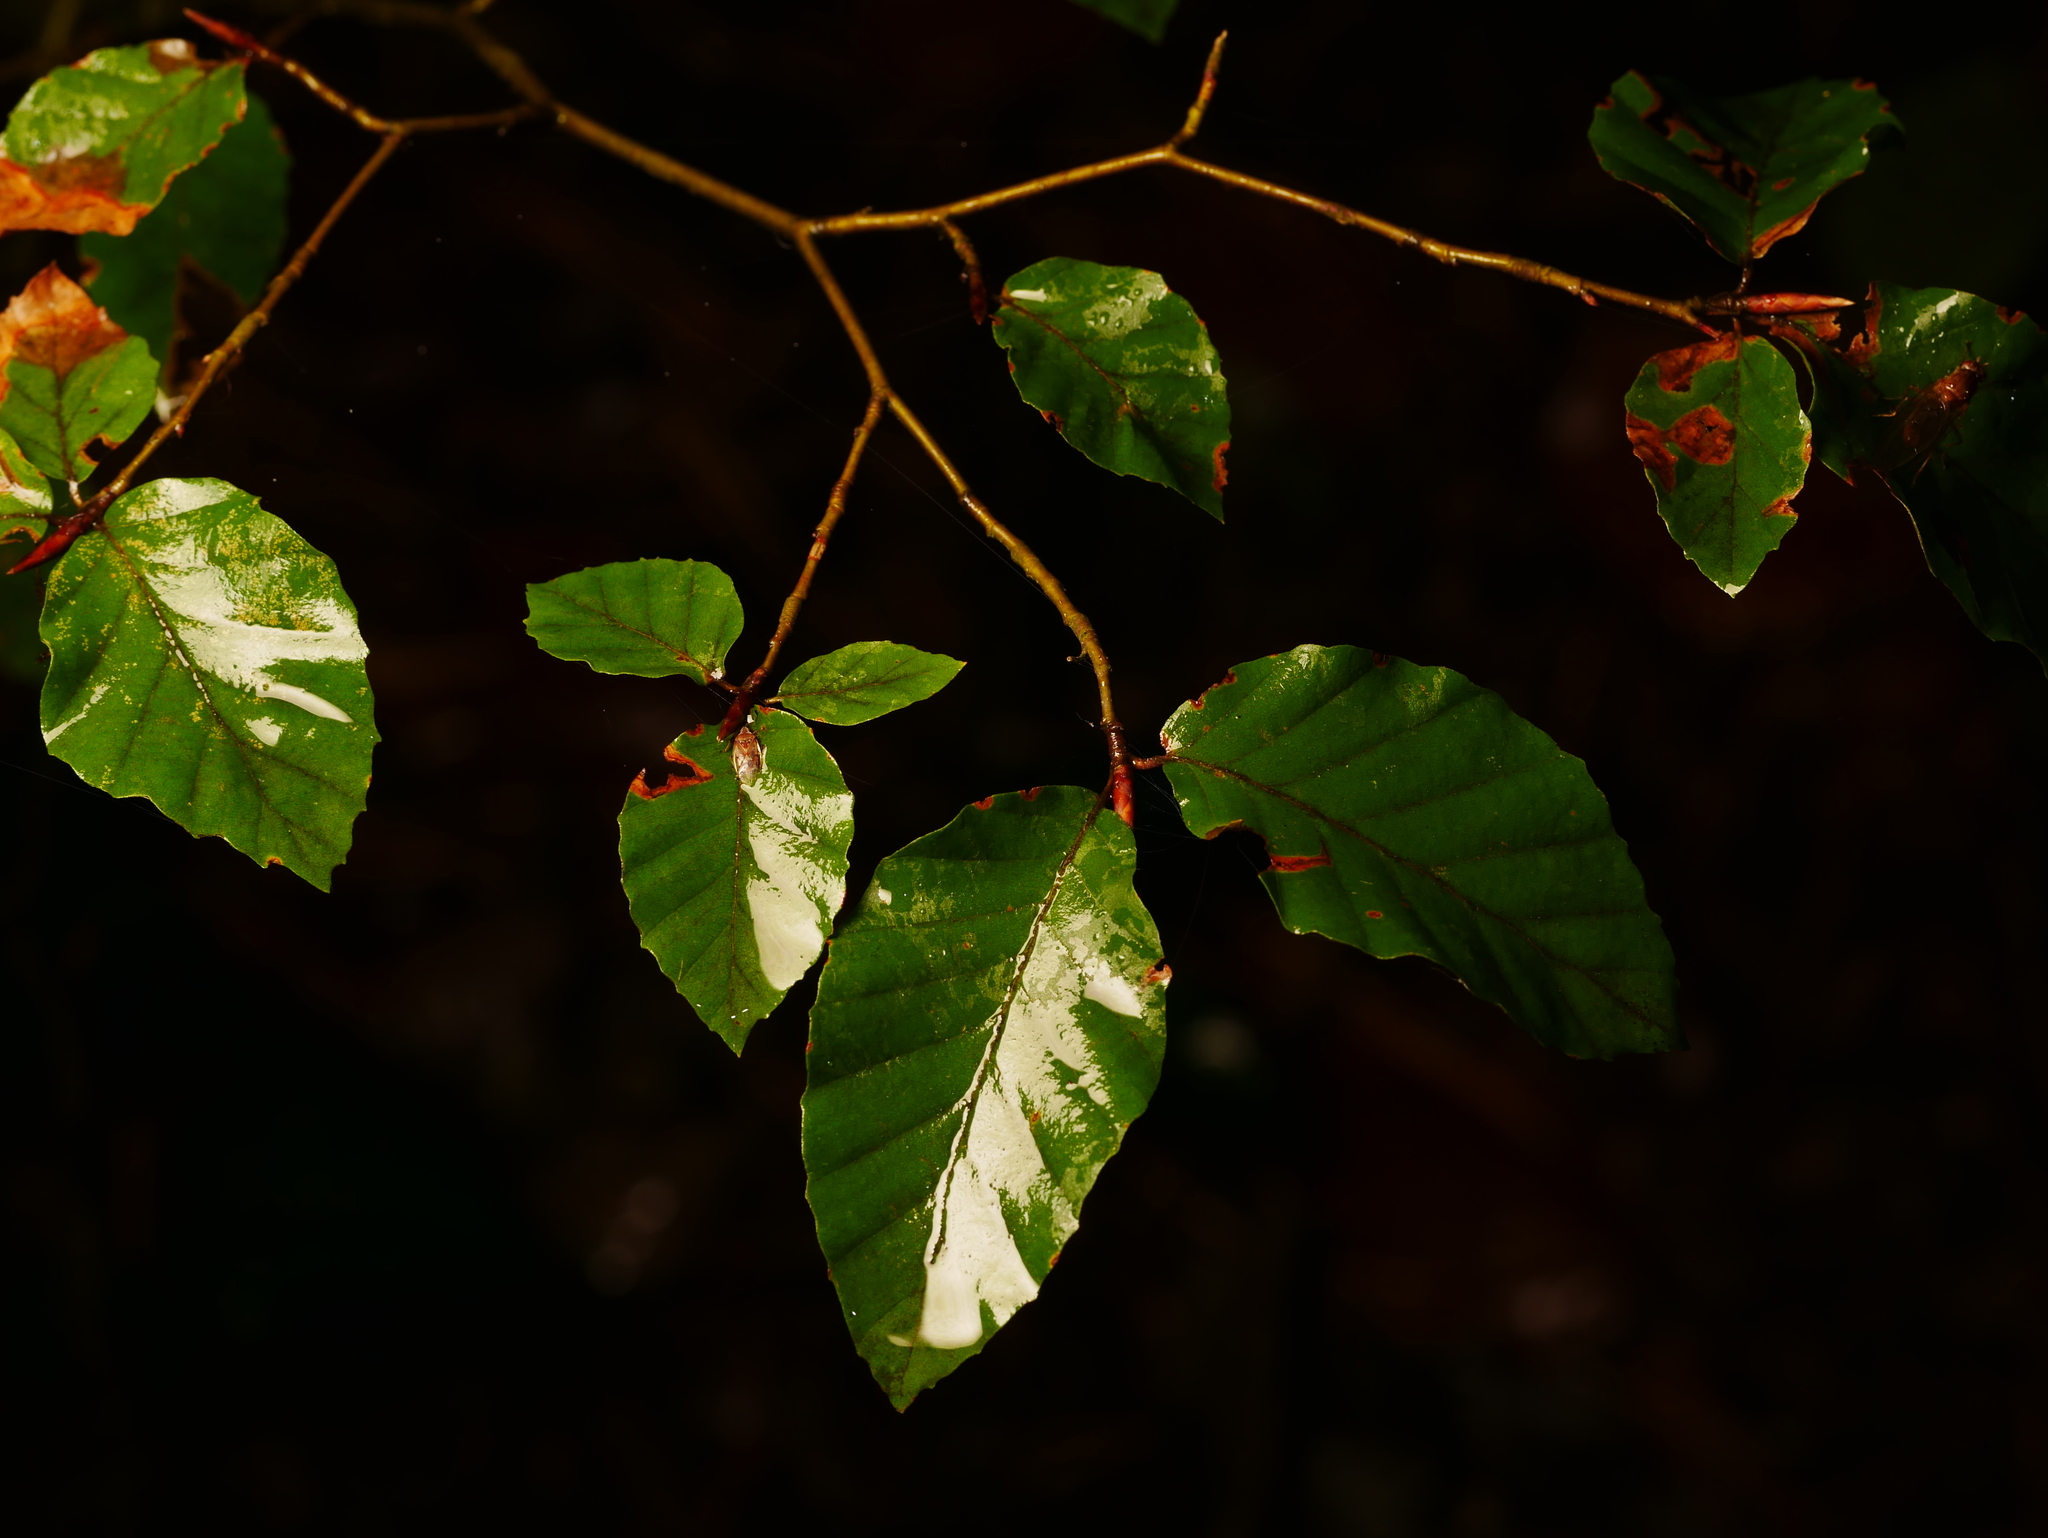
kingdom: Plantae
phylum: Tracheophyta
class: Magnoliopsida
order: Fagales
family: Fagaceae
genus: Fagus
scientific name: Fagus sylvatica
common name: Beech
